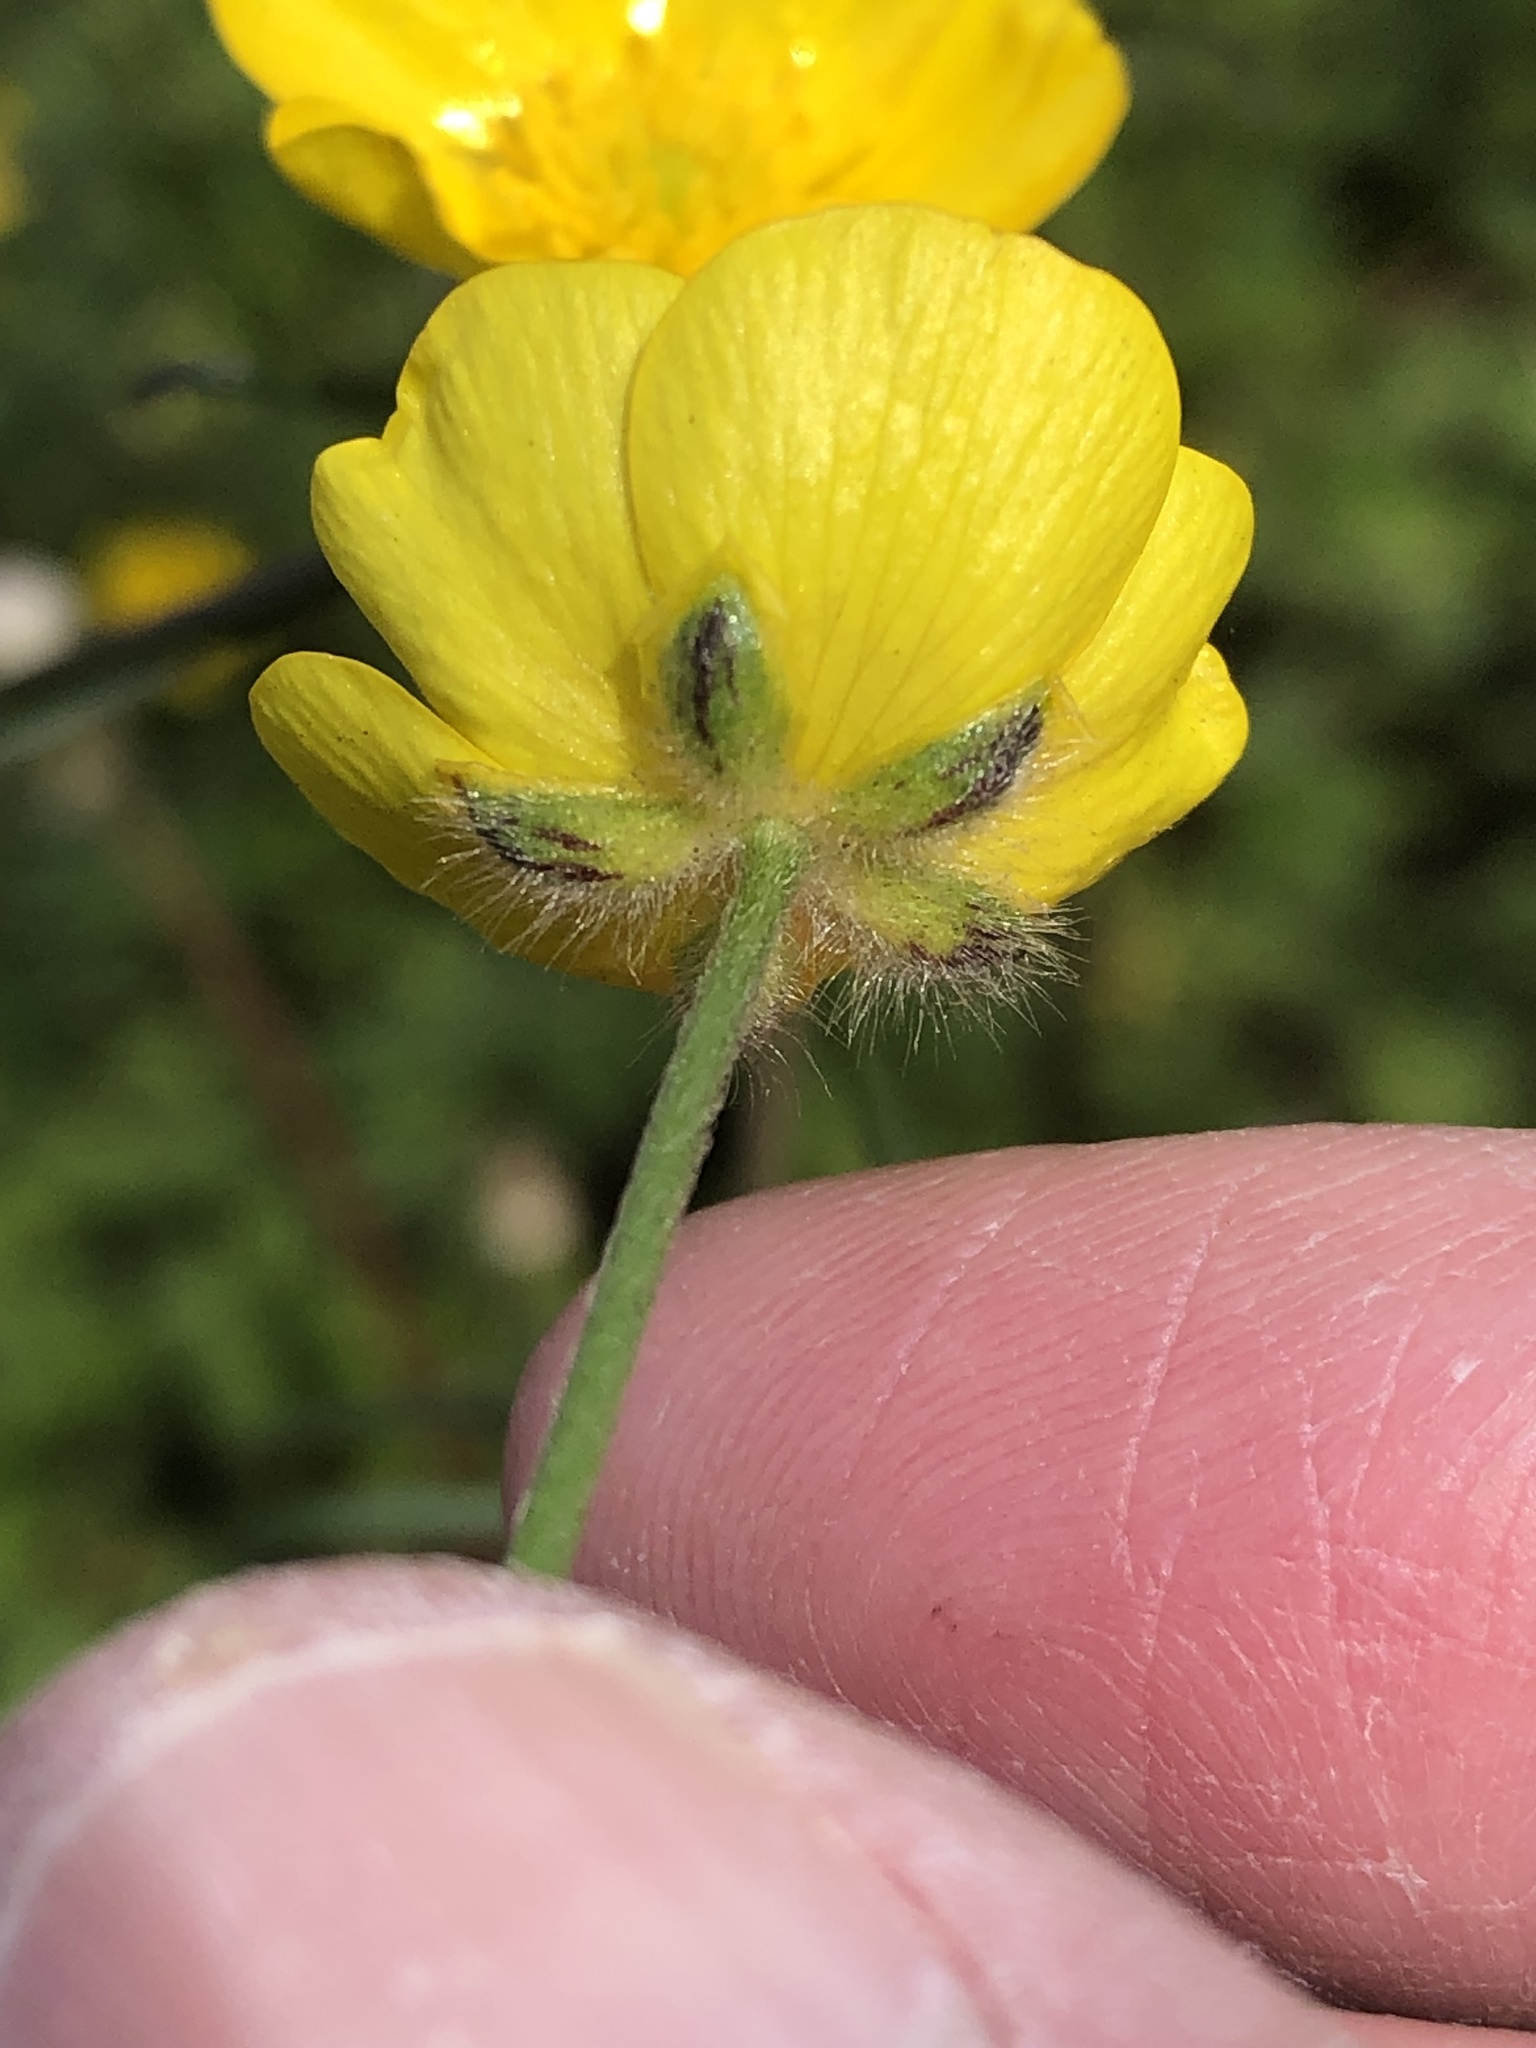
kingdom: Plantae
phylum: Tracheophyta
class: Magnoliopsida
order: Ranunculales
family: Ranunculaceae
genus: Ranunculus
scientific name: Ranunculus acris
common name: Meadow buttercup
